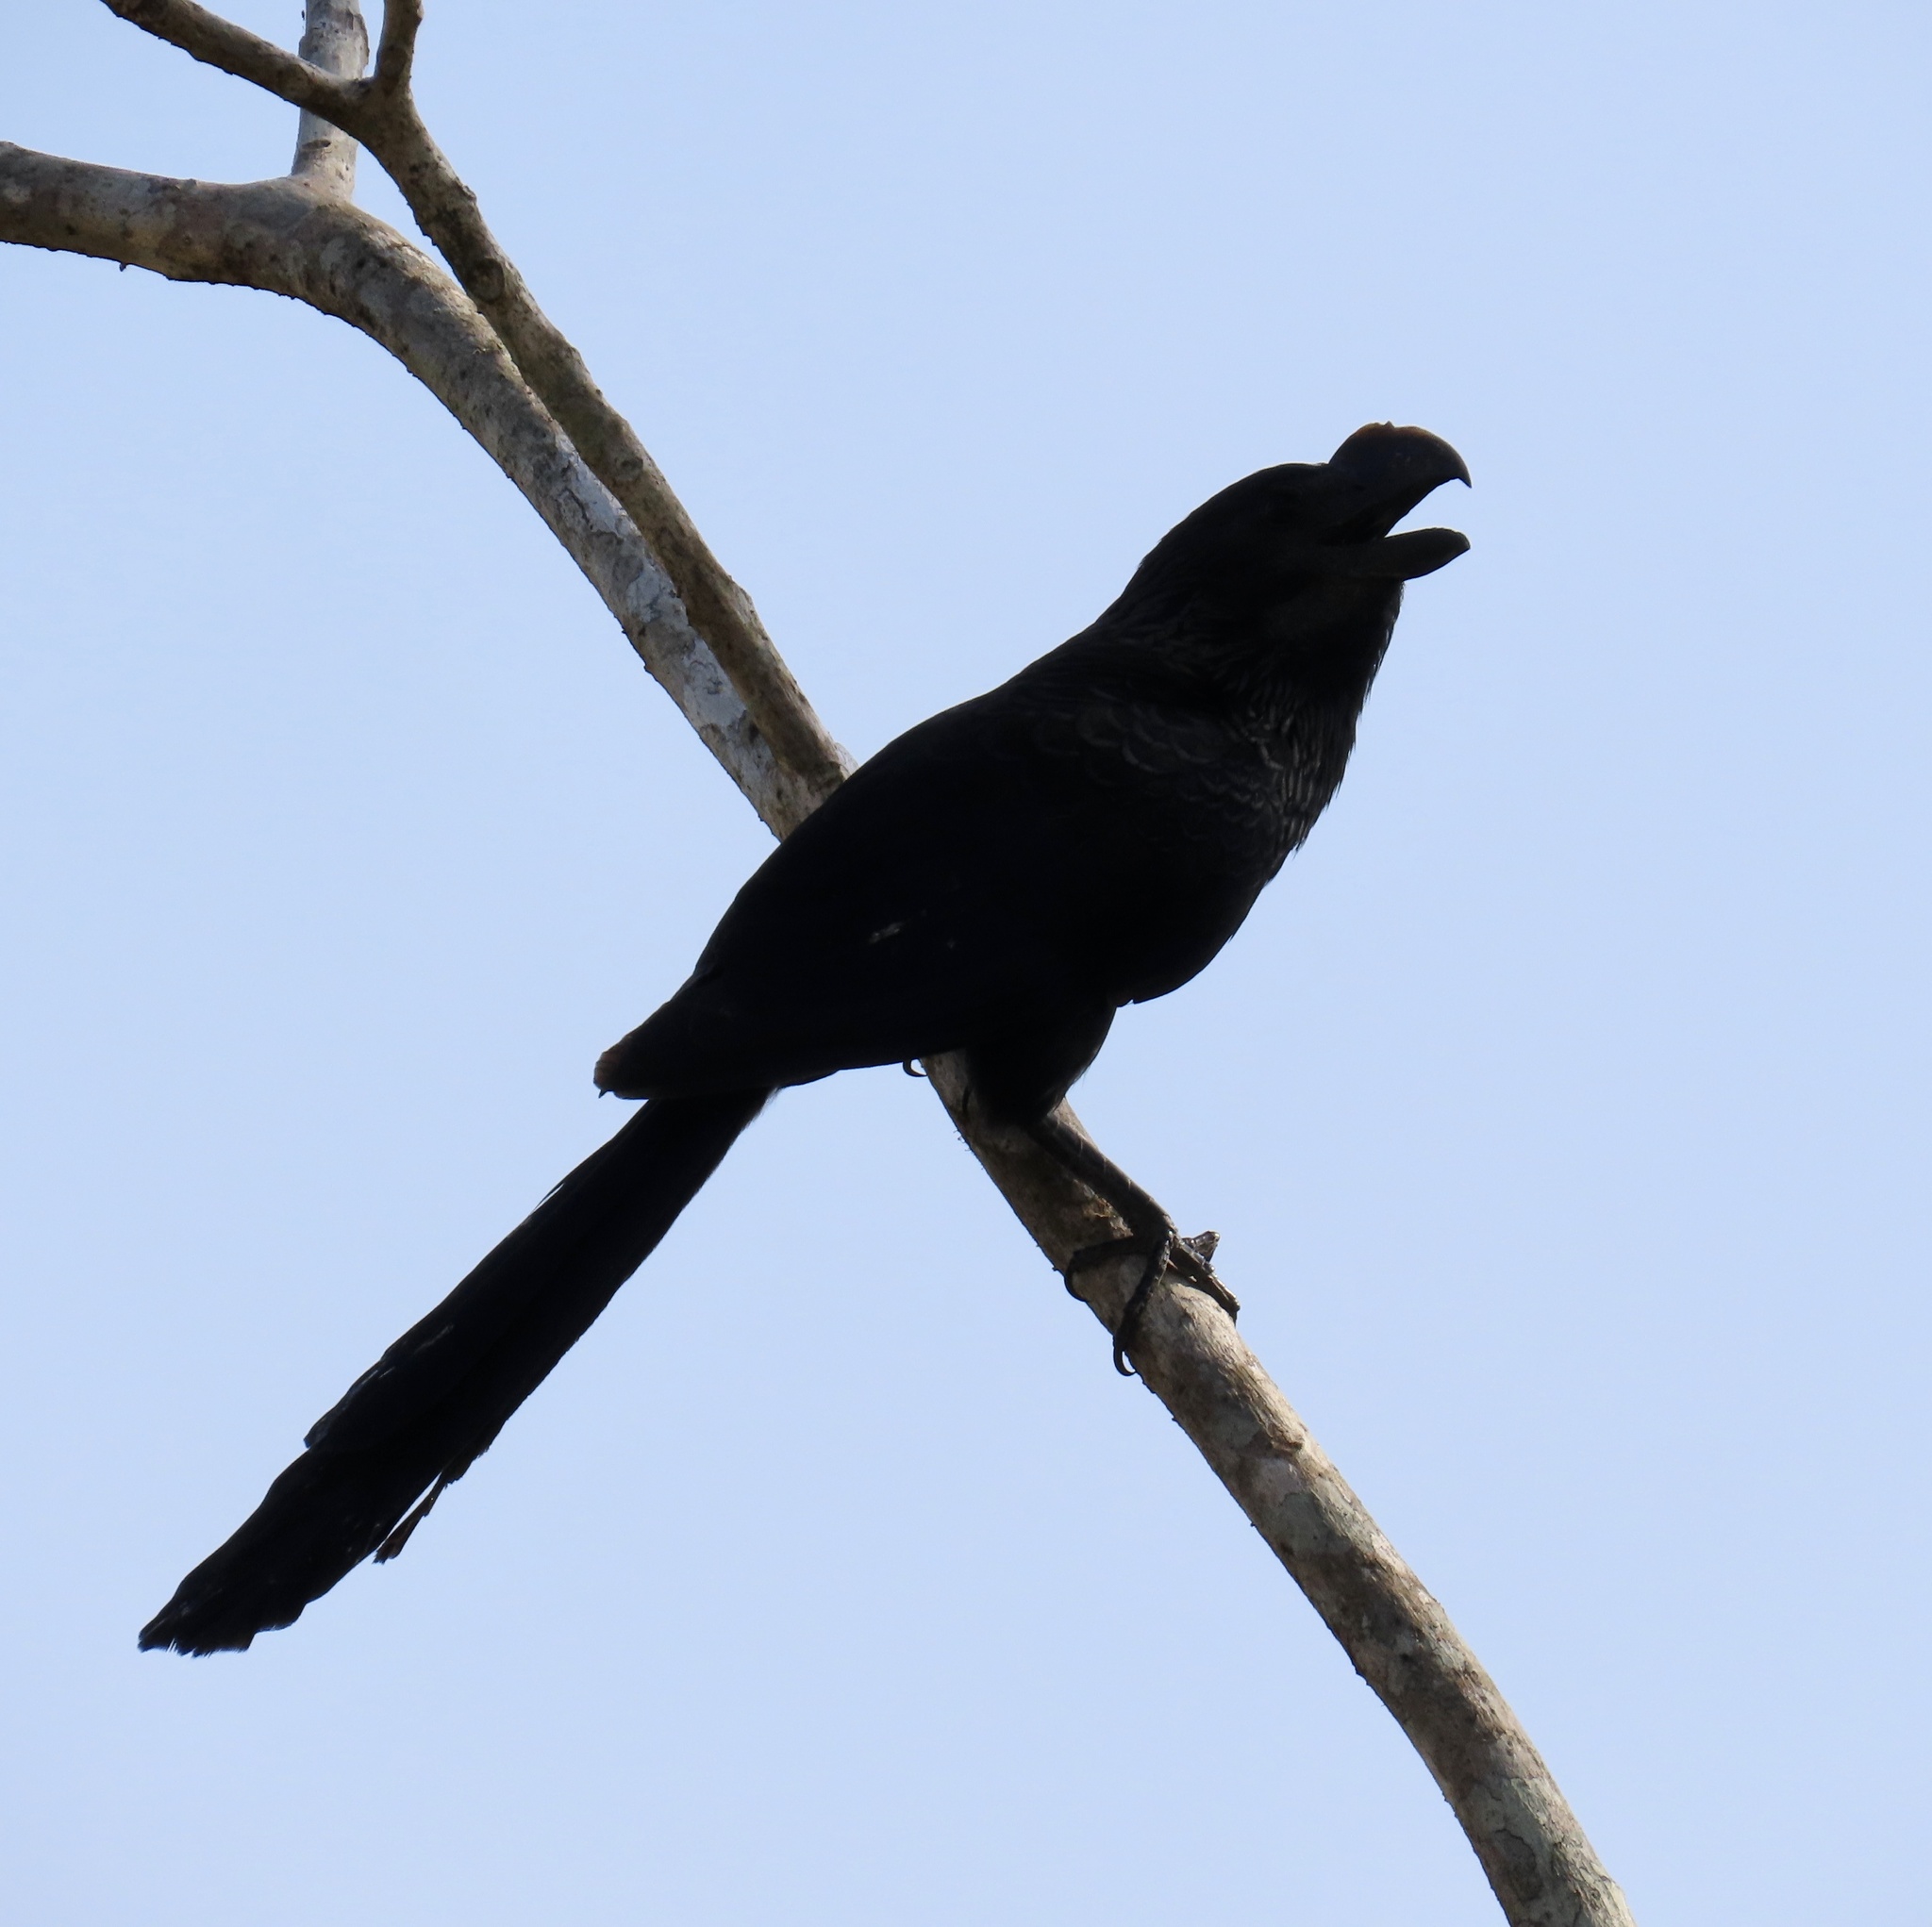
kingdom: Animalia
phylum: Chordata
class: Aves
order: Cuculiformes
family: Cuculidae
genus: Crotophaga
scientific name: Crotophaga ani
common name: Smooth-billed ani
